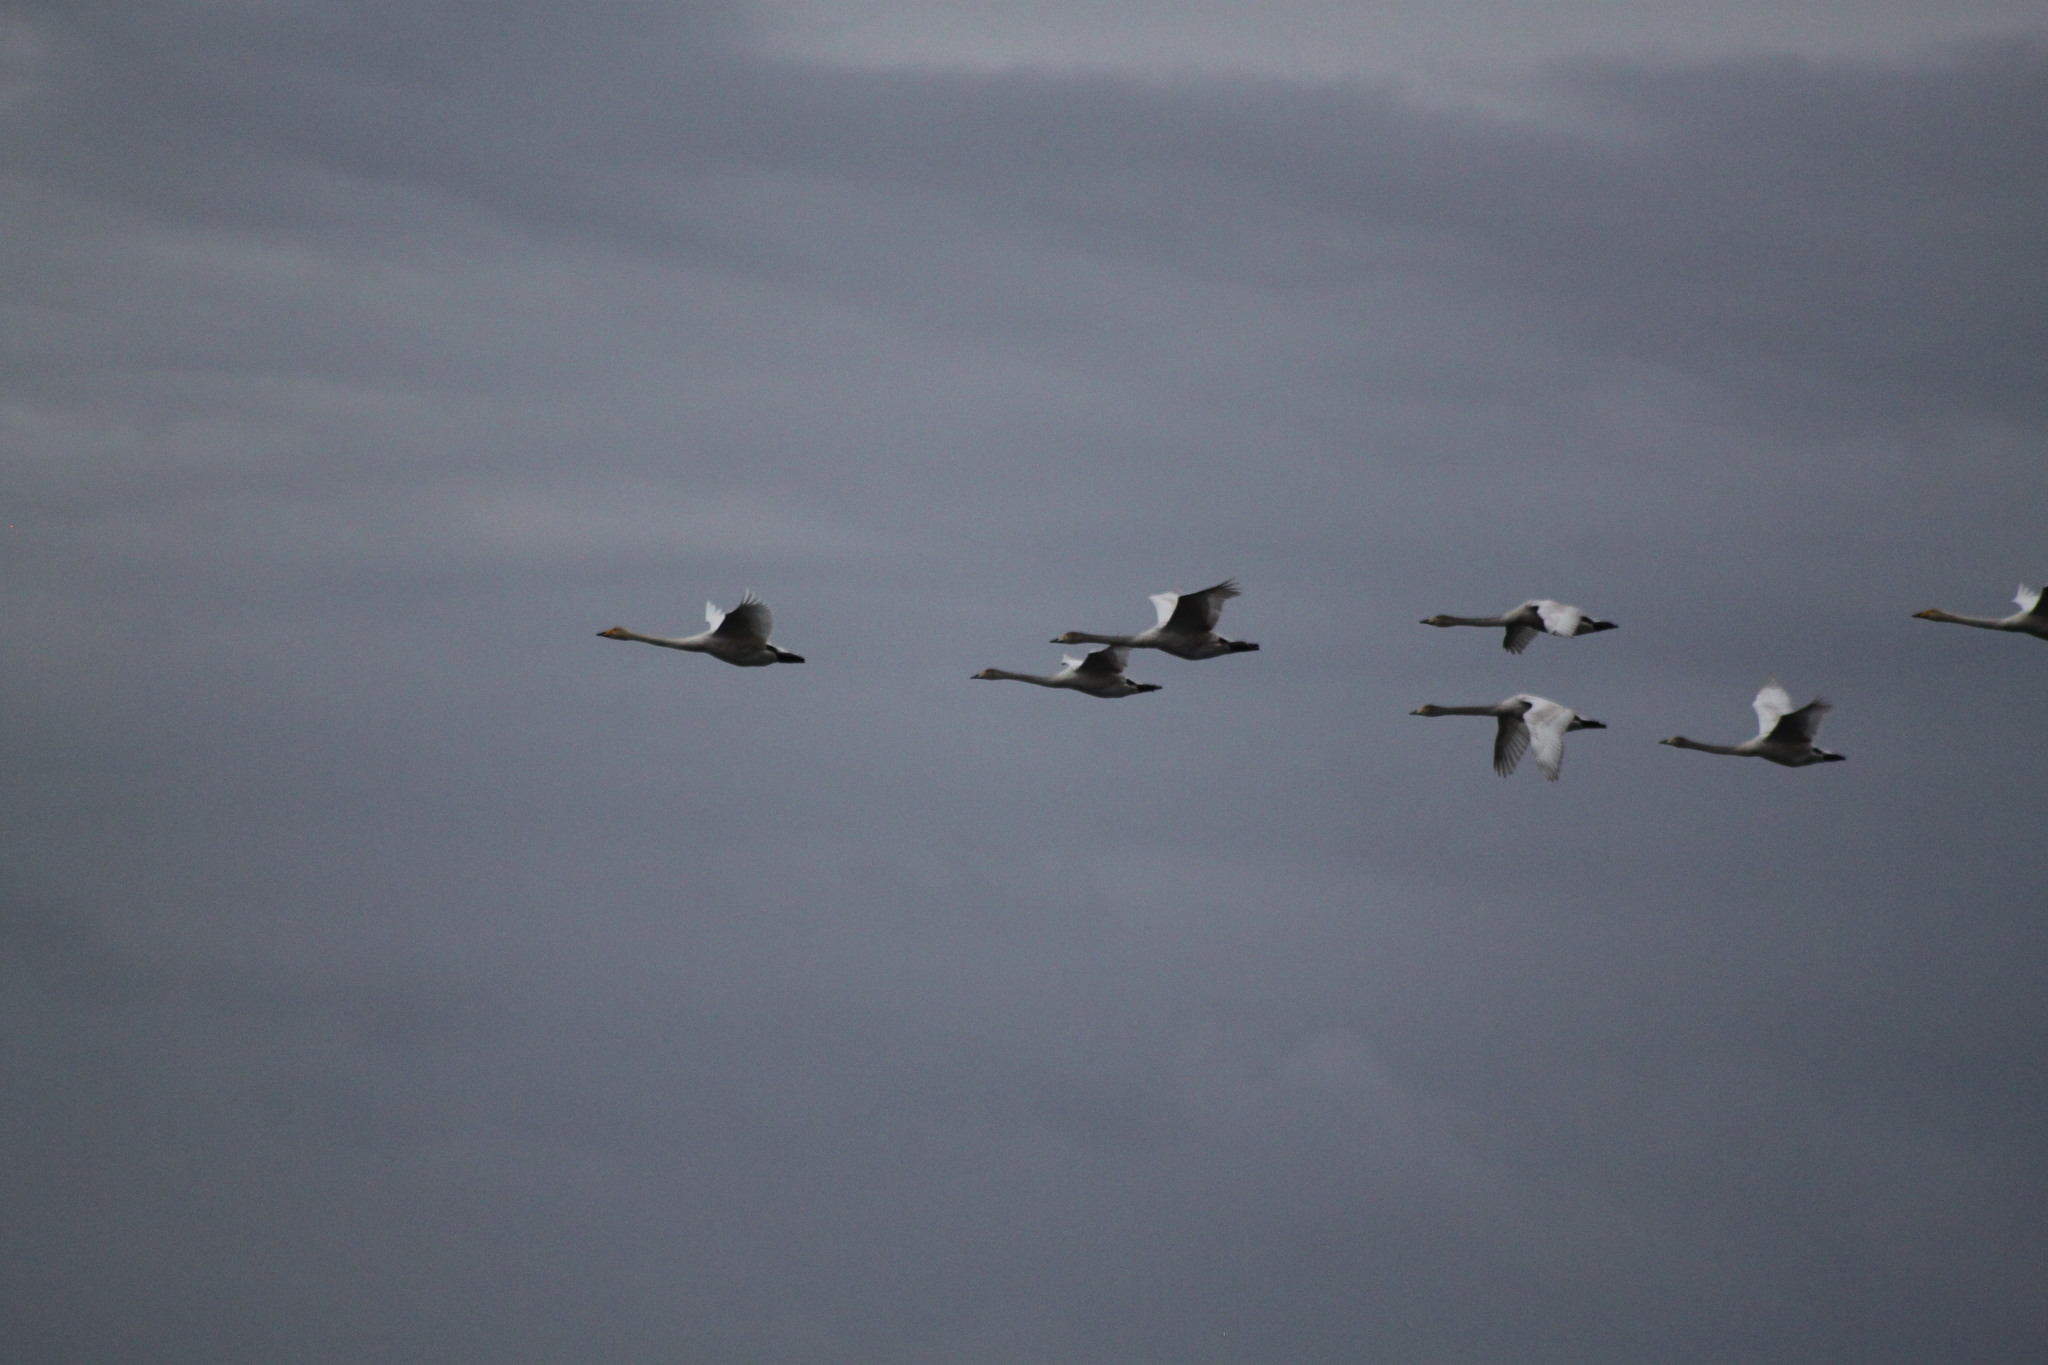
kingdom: Animalia
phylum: Chordata
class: Aves
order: Anseriformes
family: Anatidae
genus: Cygnus
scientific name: Cygnus cygnus
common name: Whooper swan
